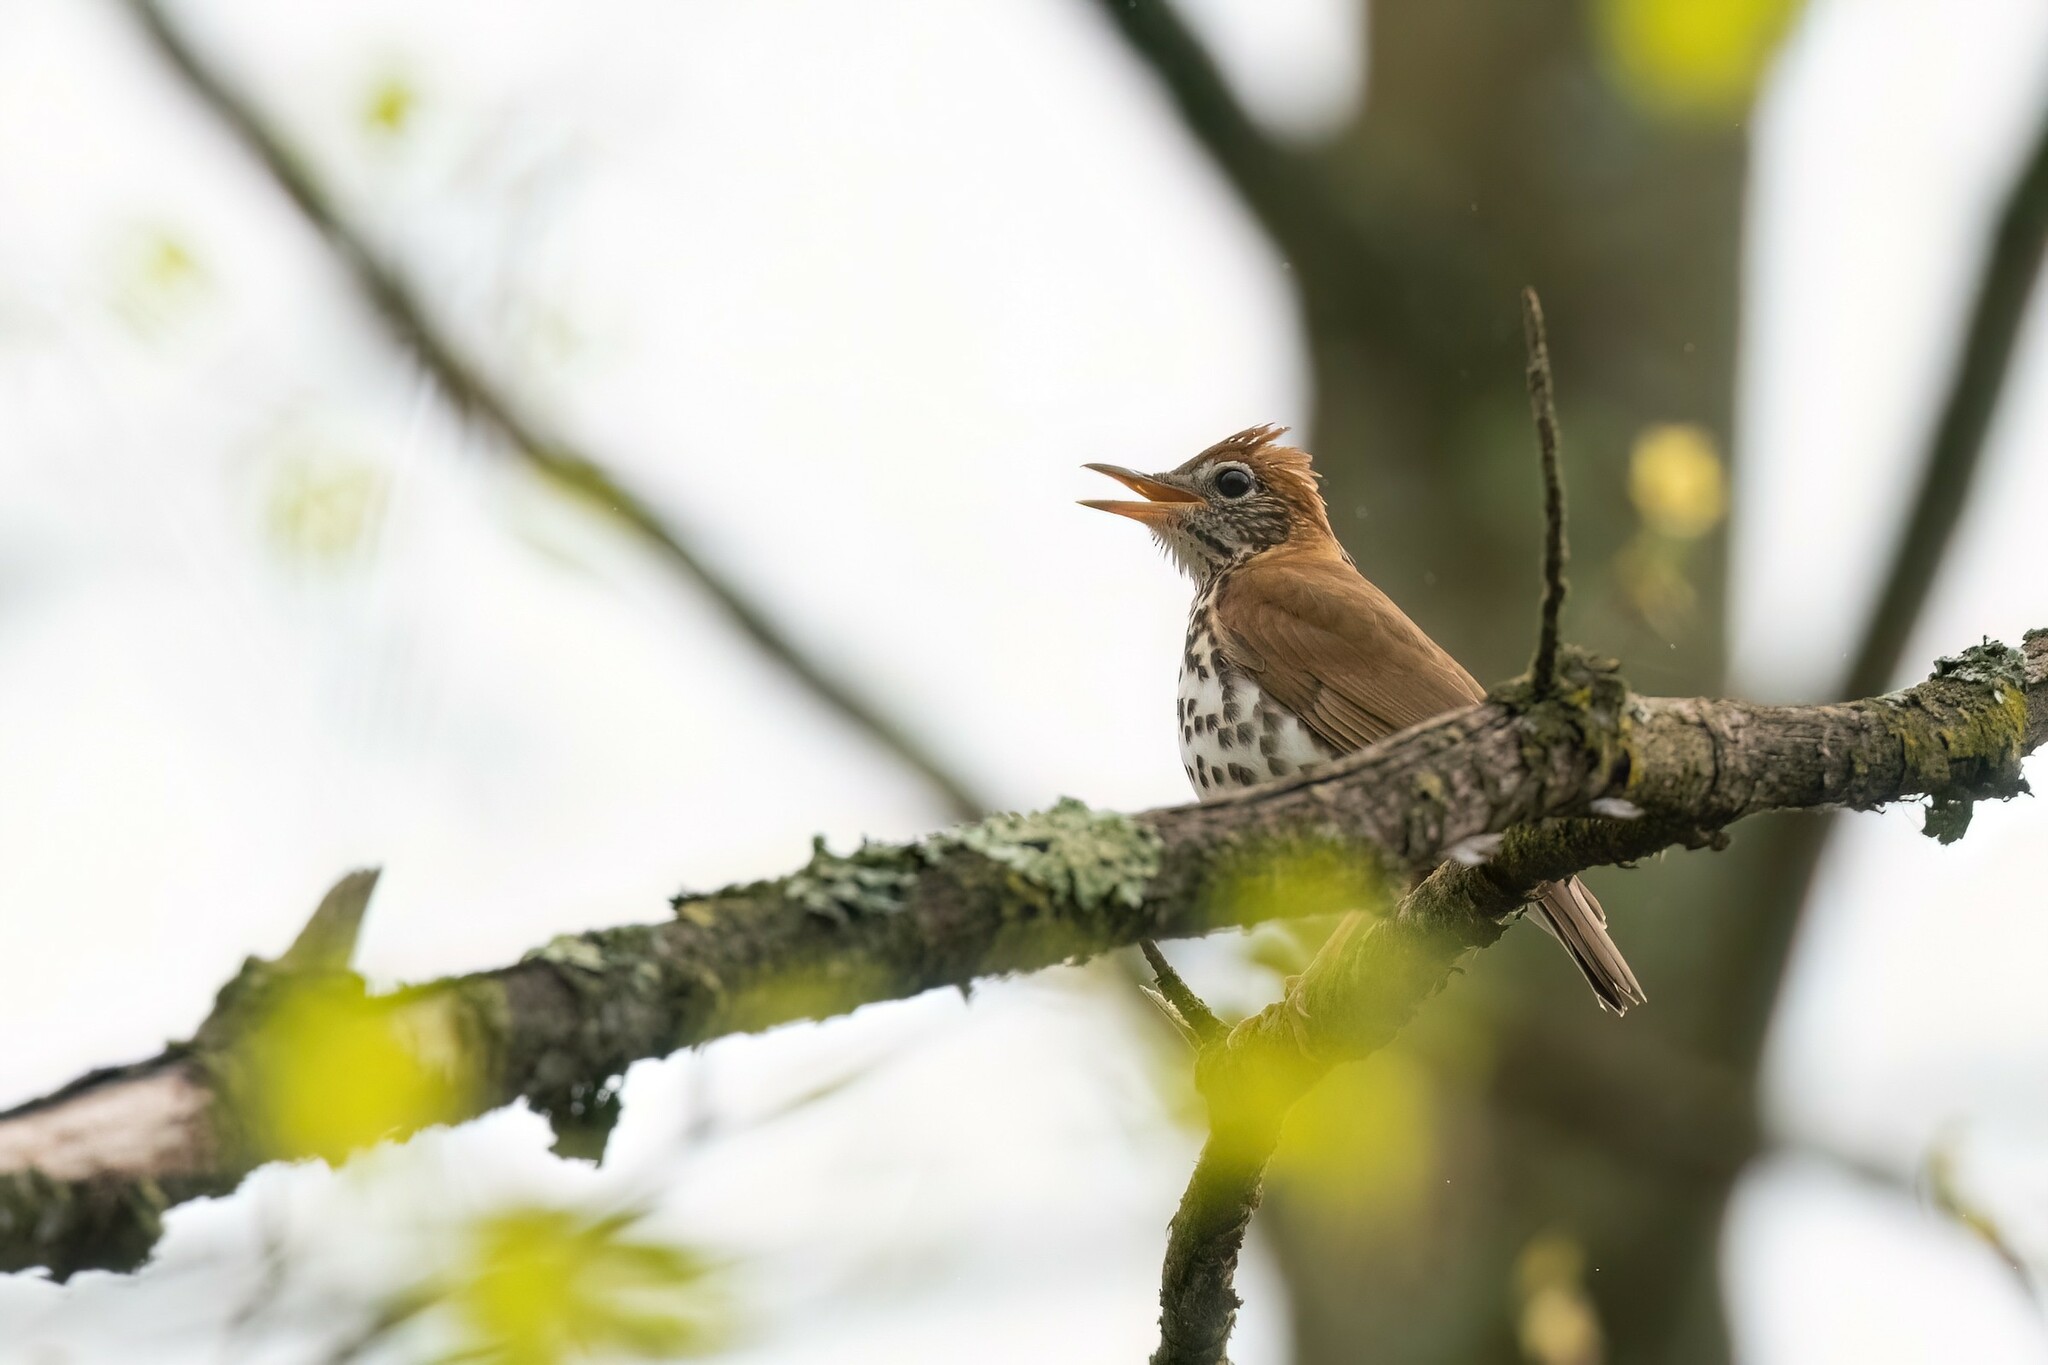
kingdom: Animalia
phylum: Chordata
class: Aves
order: Passeriformes
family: Turdidae
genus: Hylocichla
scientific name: Hylocichla mustelina
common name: Wood thrush
